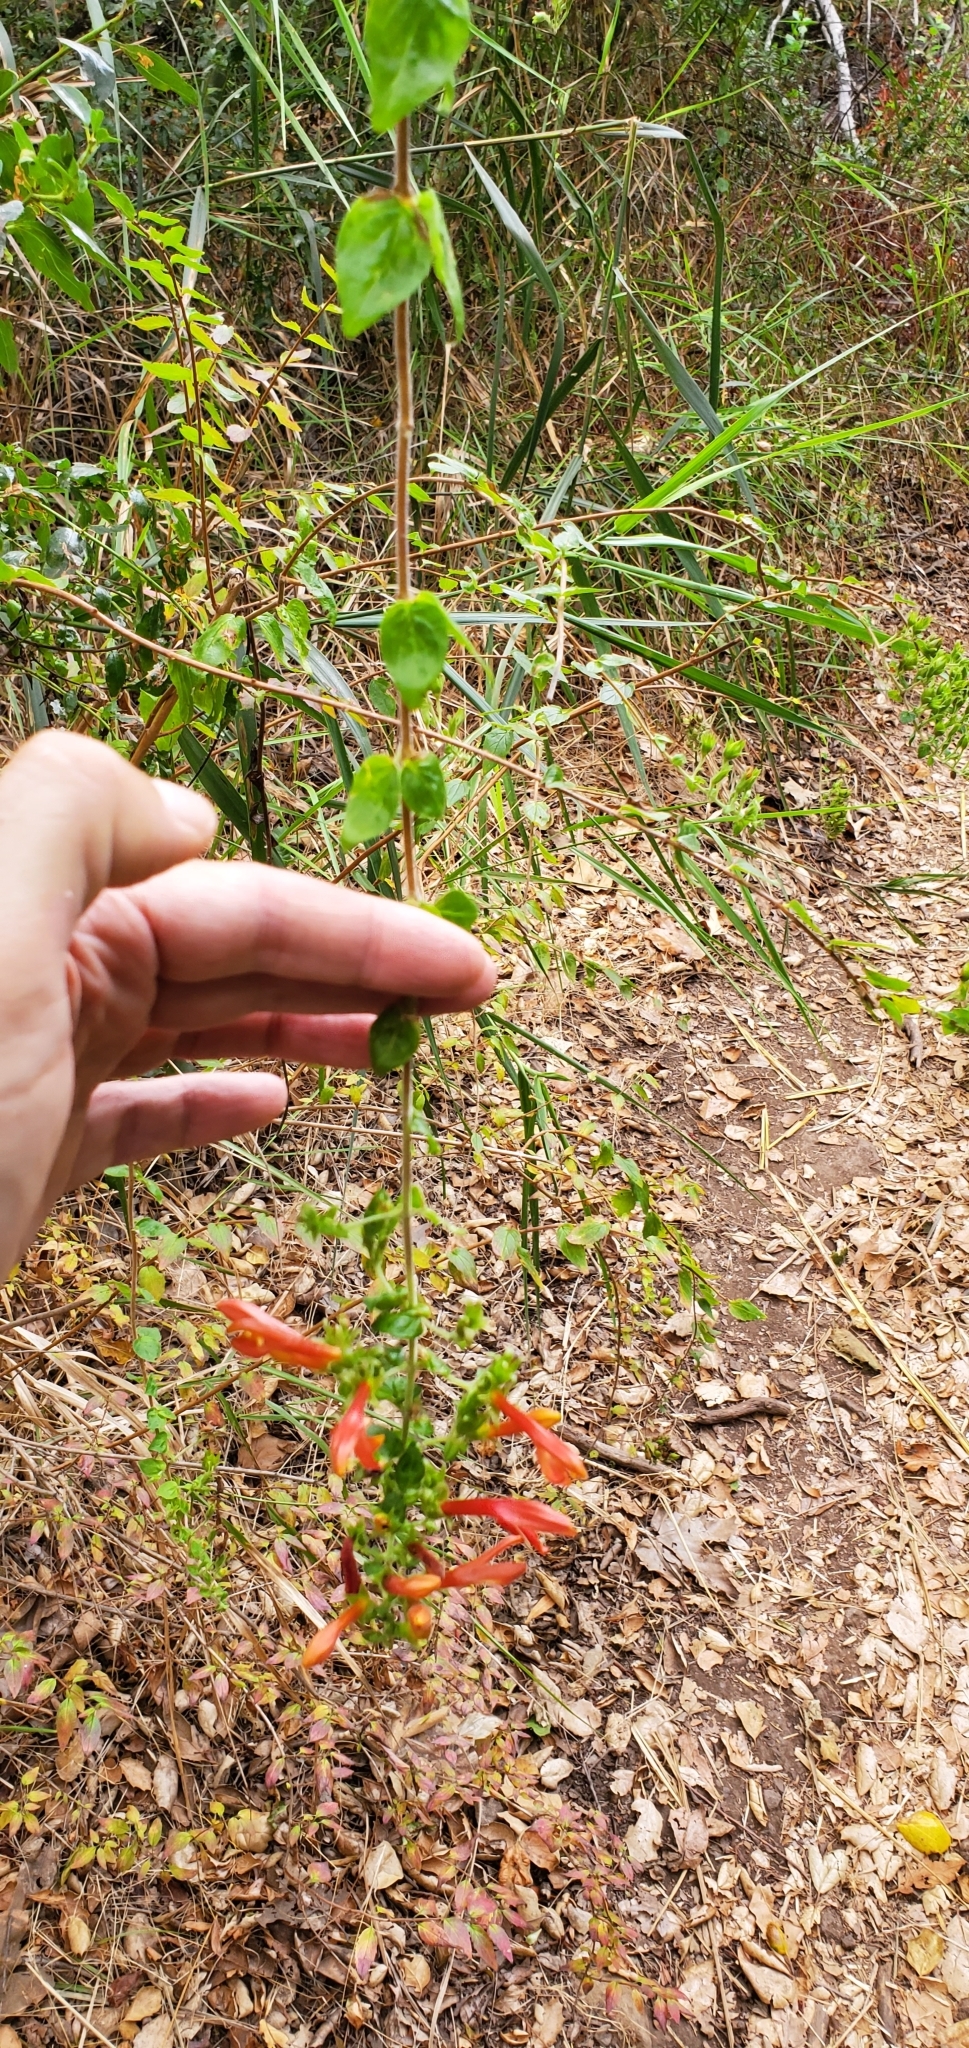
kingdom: Plantae
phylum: Tracheophyta
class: Magnoliopsida
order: Lamiales
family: Plantaginaceae
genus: Keckiella
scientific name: Keckiella cordifolia
